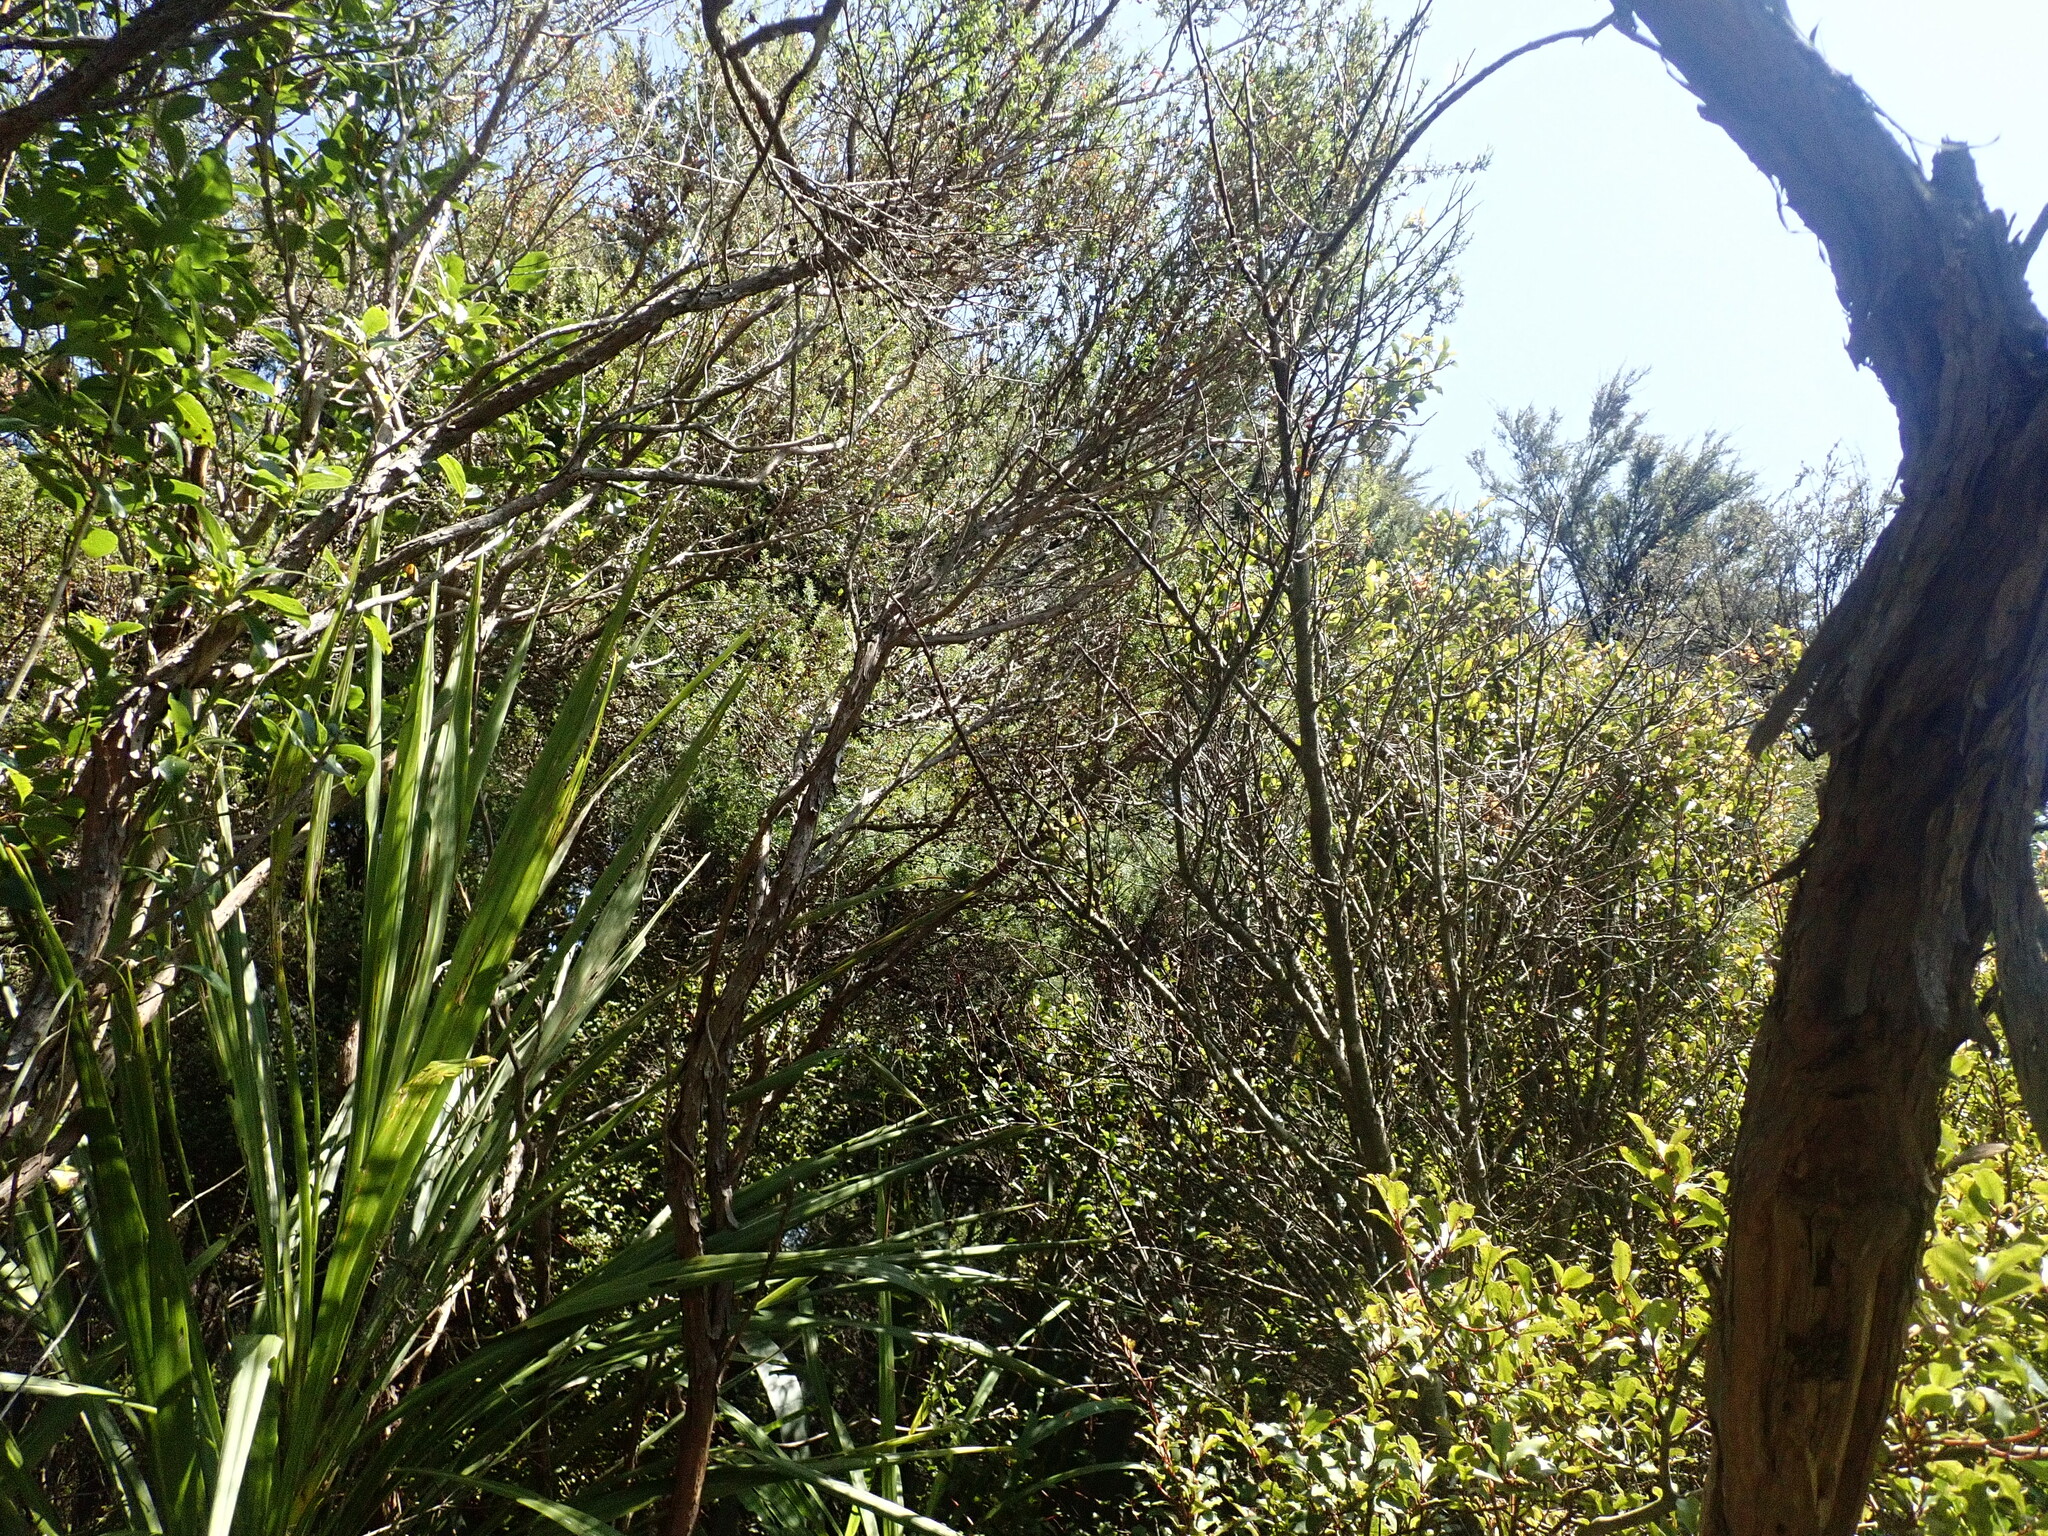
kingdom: Plantae
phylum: Tracheophyta
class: Liliopsida
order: Asparagales
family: Asparagaceae
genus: Cordyline
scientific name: Cordyline australis
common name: Cabbage-palm
